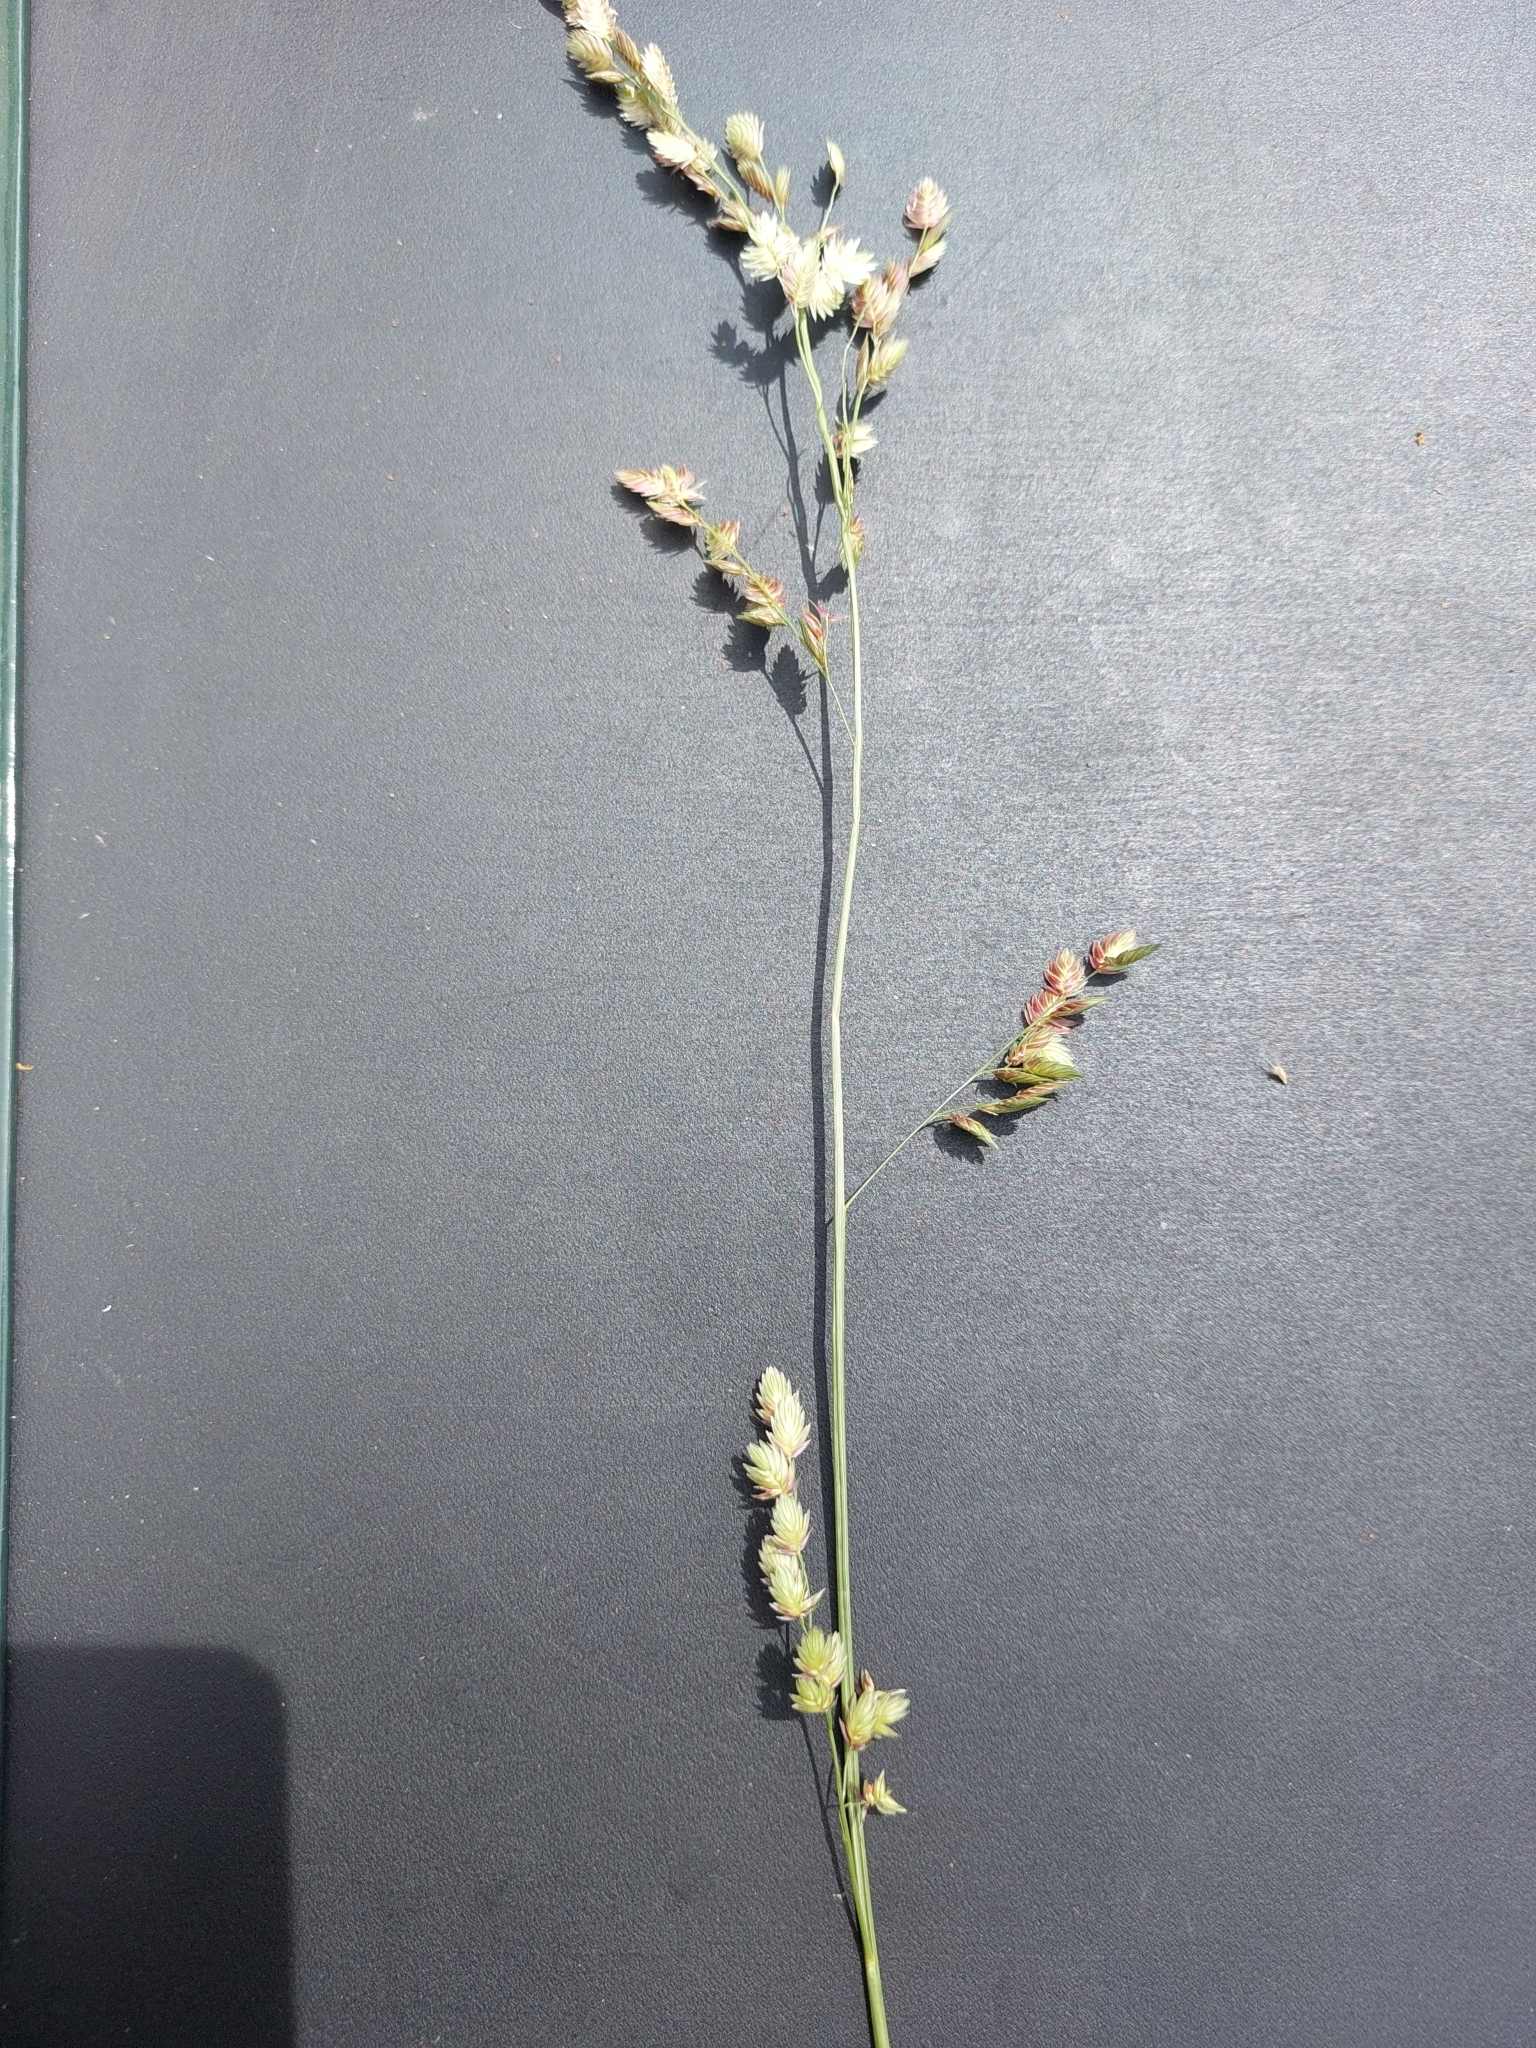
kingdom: Plantae
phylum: Tracheophyta
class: Liliopsida
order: Poales
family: Poaceae
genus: Eragrostis
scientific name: Eragrostis superba
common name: Wilman lovegrass
